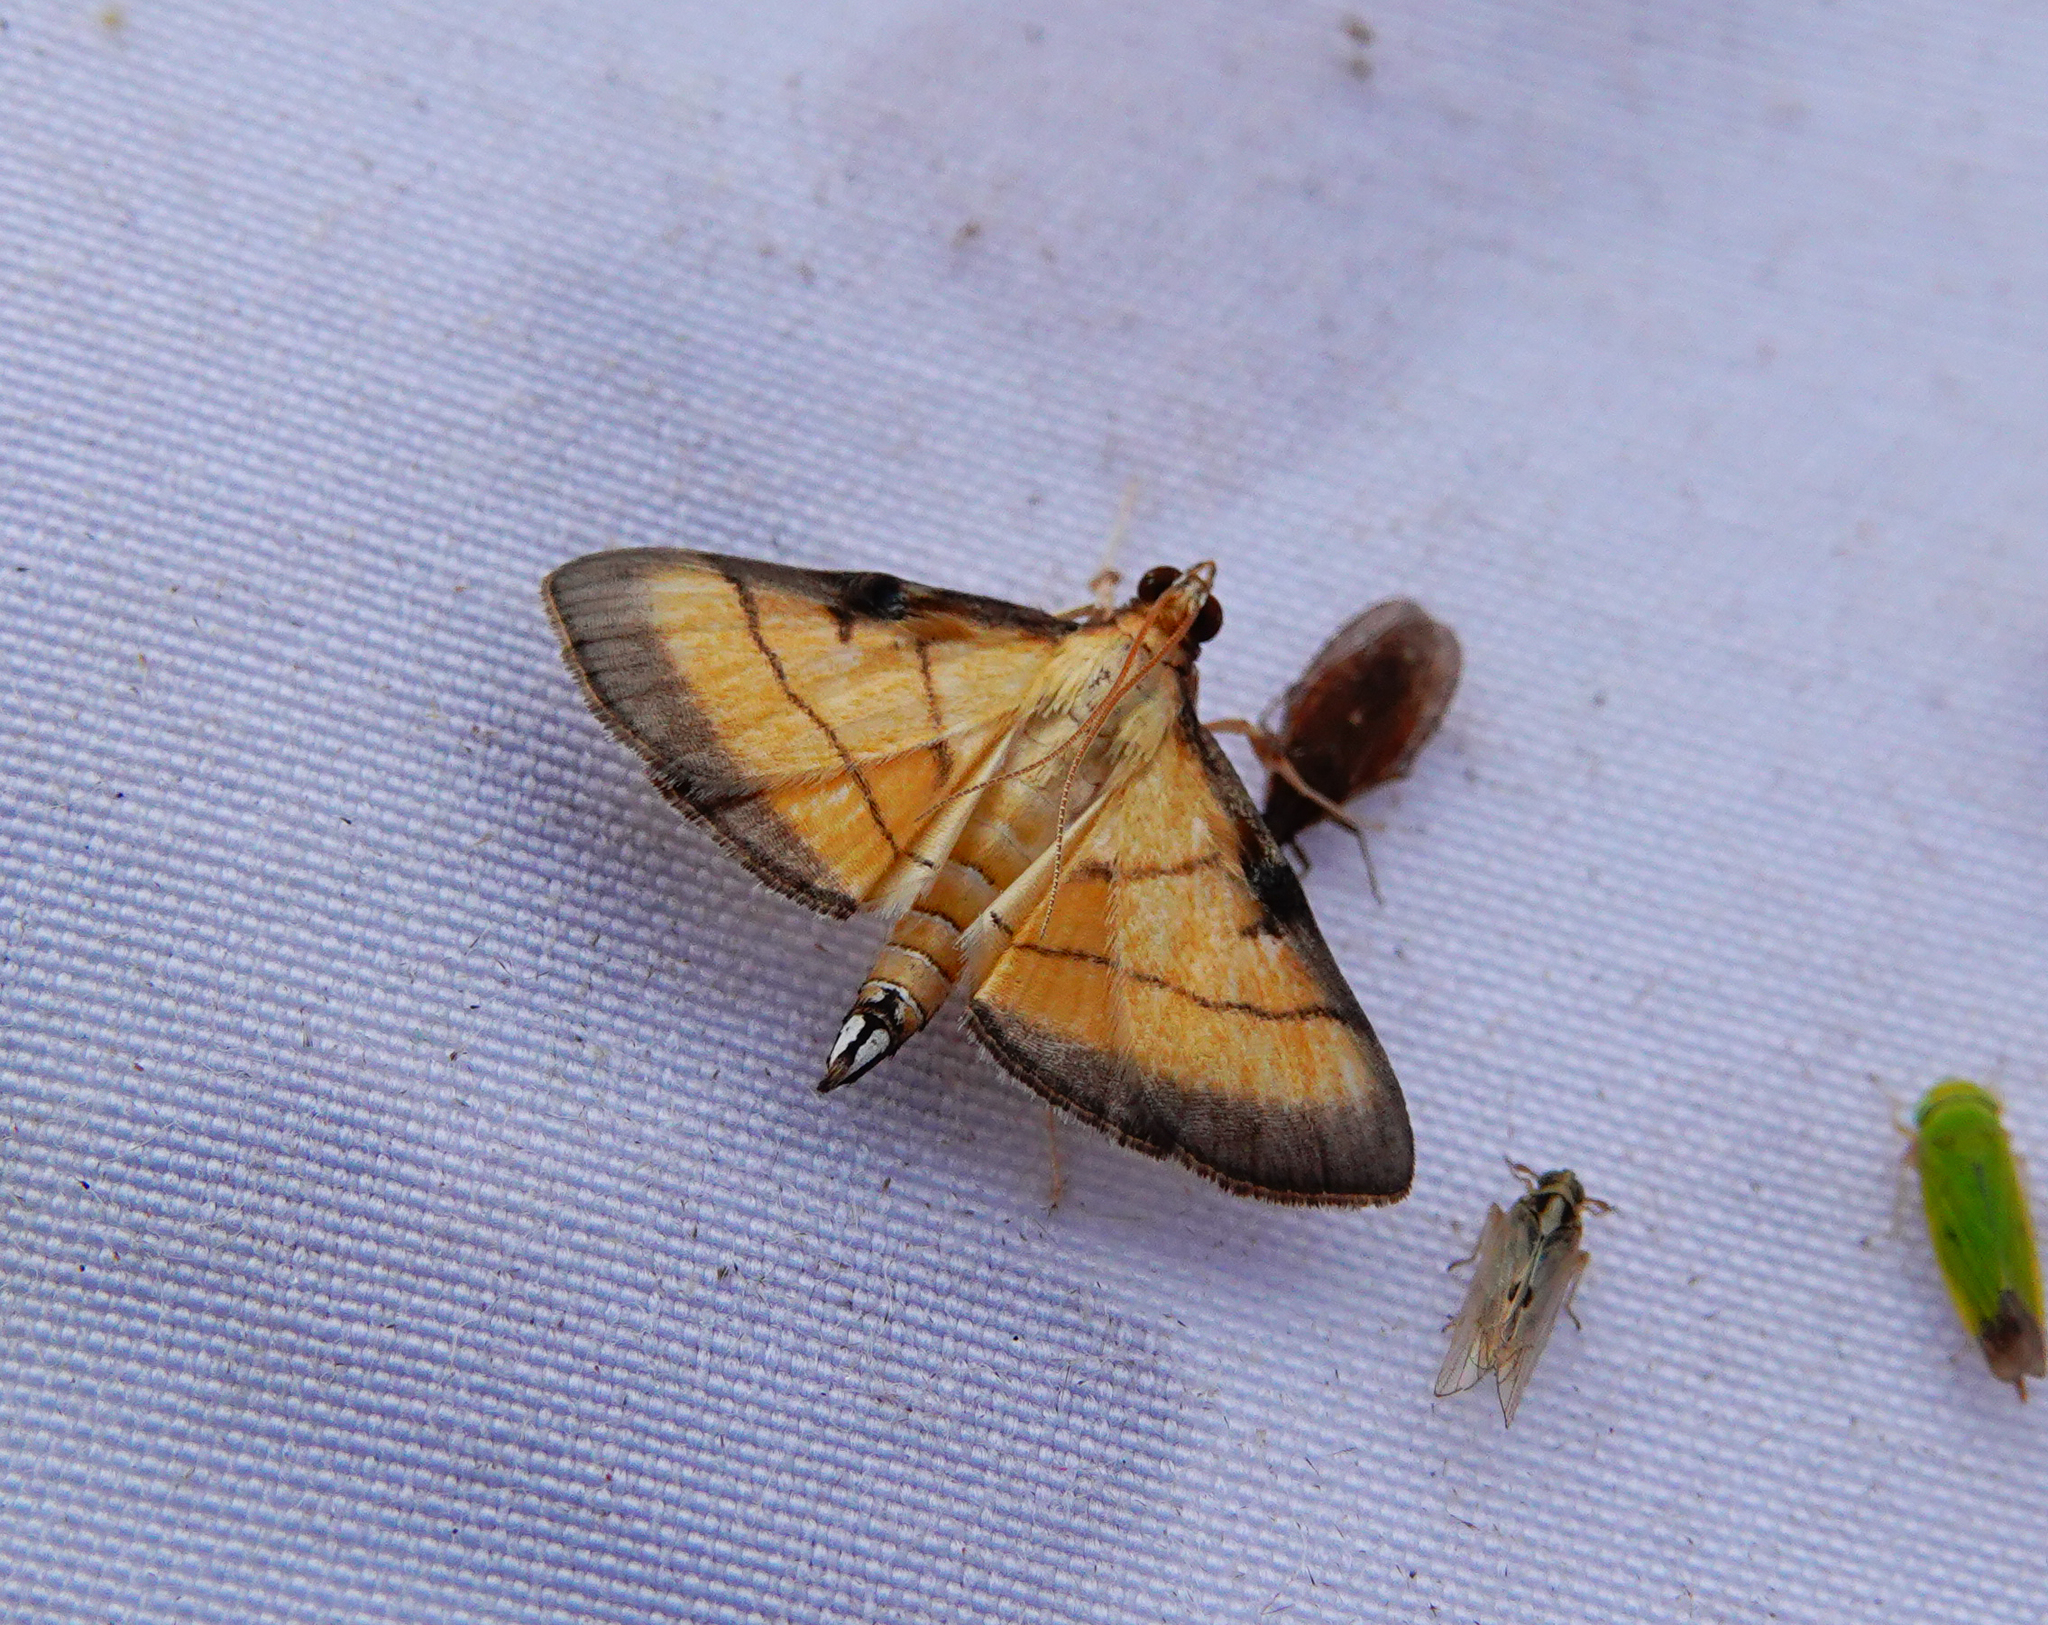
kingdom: Animalia
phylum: Arthropoda
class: Insecta
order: Lepidoptera
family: Crambidae
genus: Cnaphalocrocis
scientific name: Cnaphalocrocis medinalis
